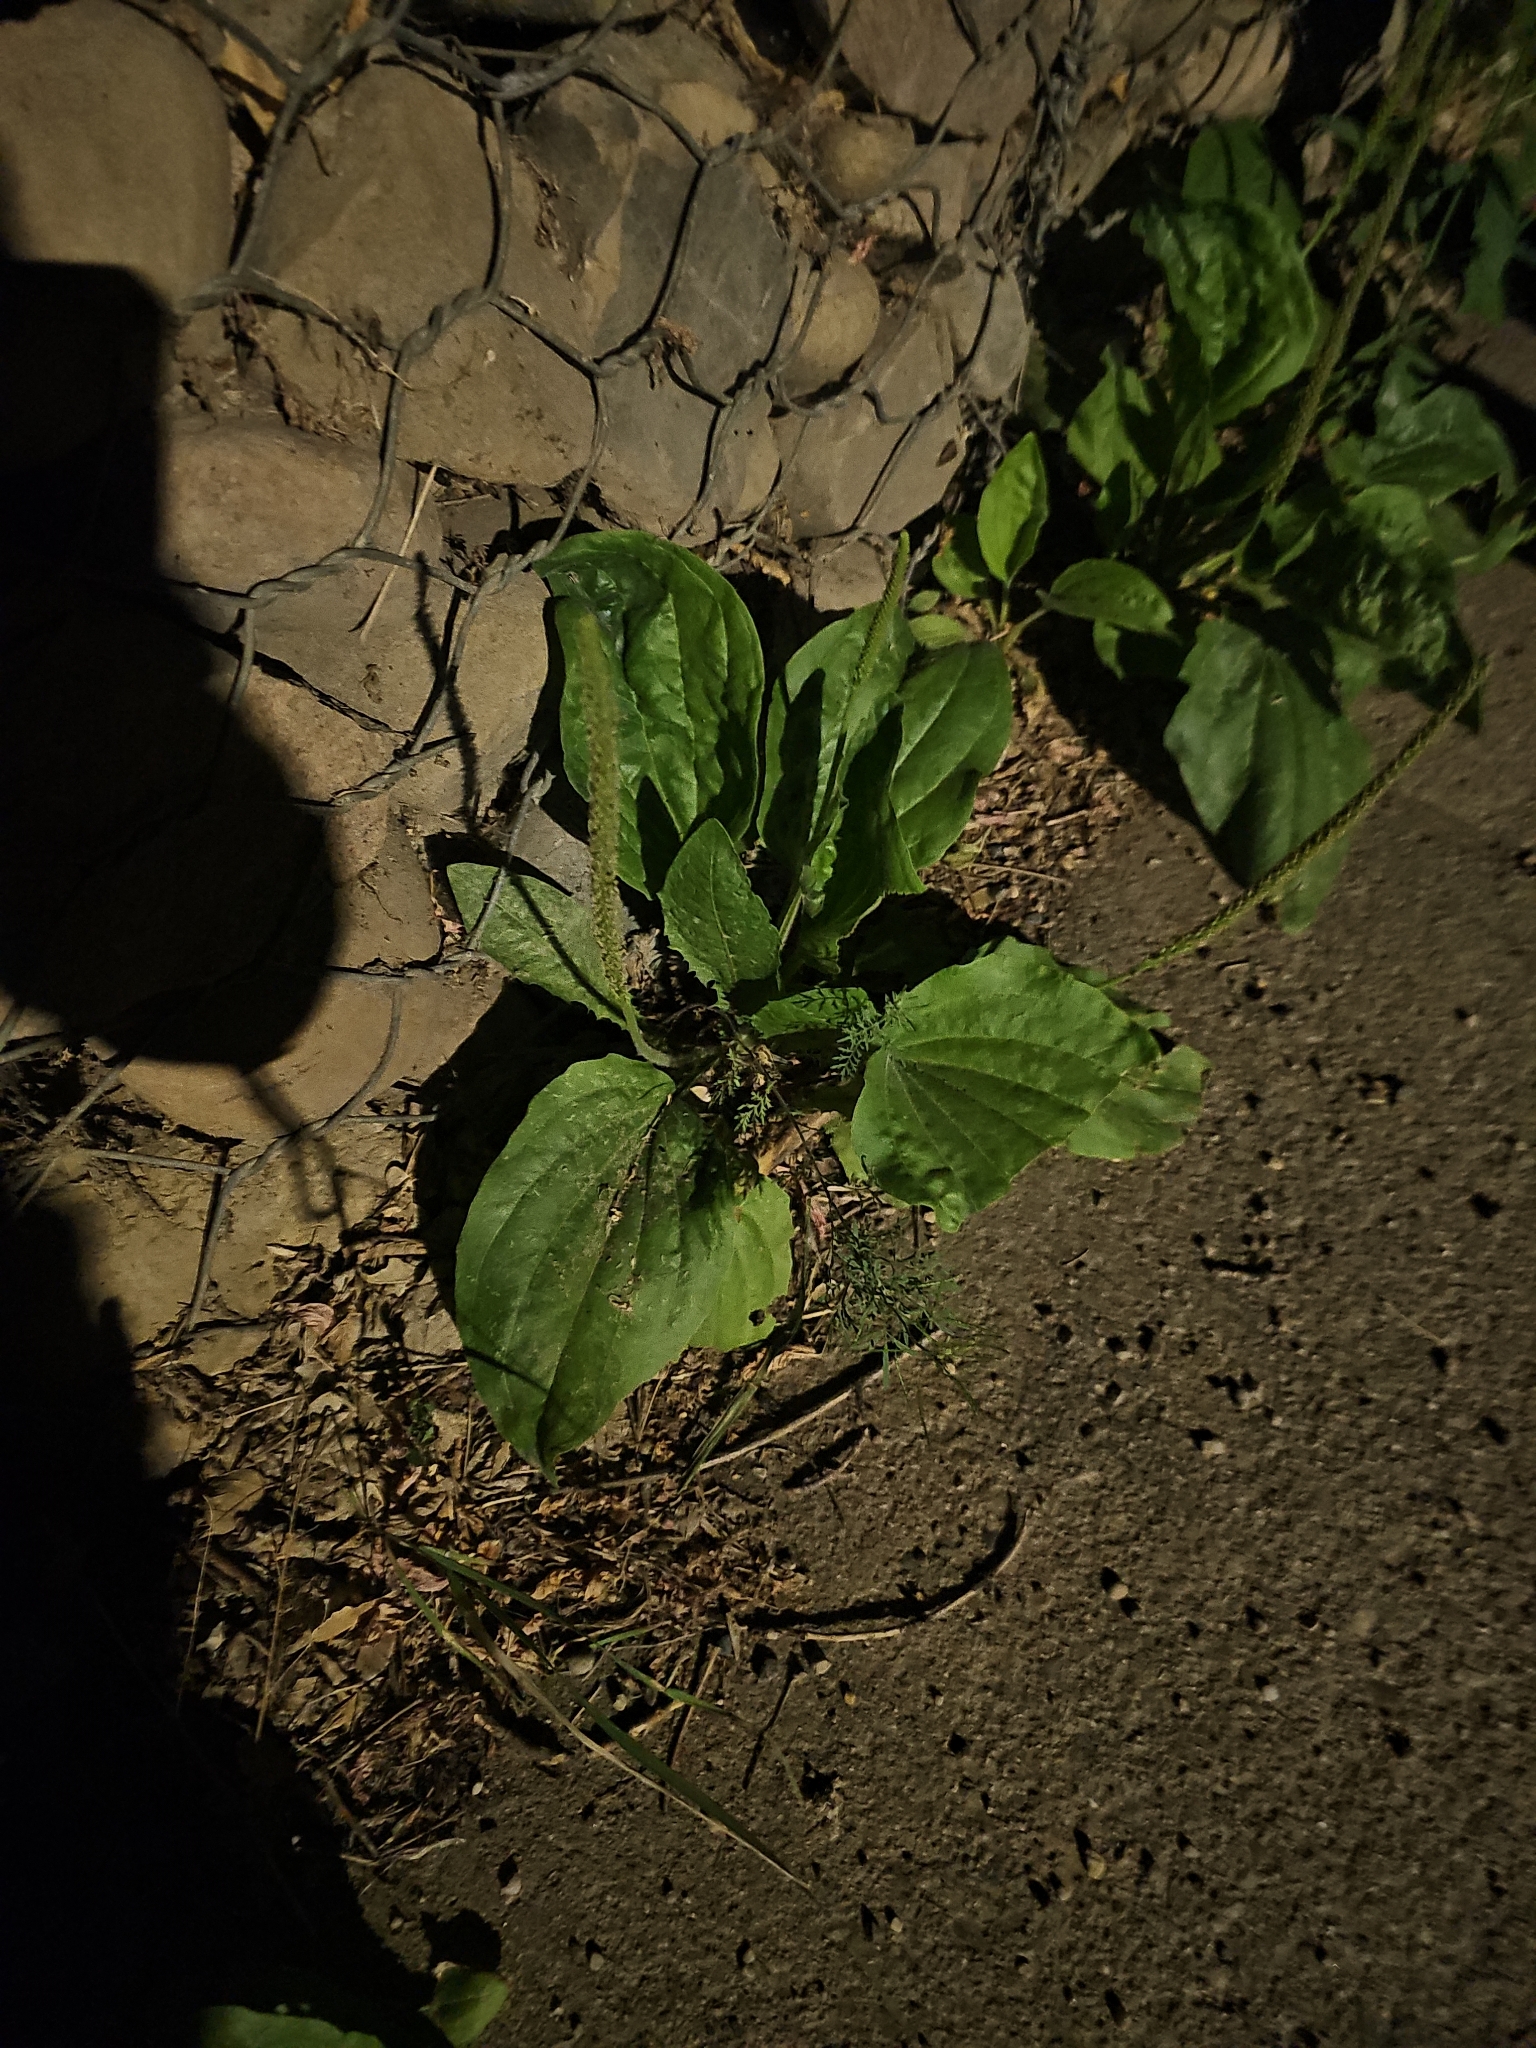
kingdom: Plantae
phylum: Tracheophyta
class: Magnoliopsida
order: Lamiales
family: Plantaginaceae
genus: Plantago
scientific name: Plantago major
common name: Common plantain
